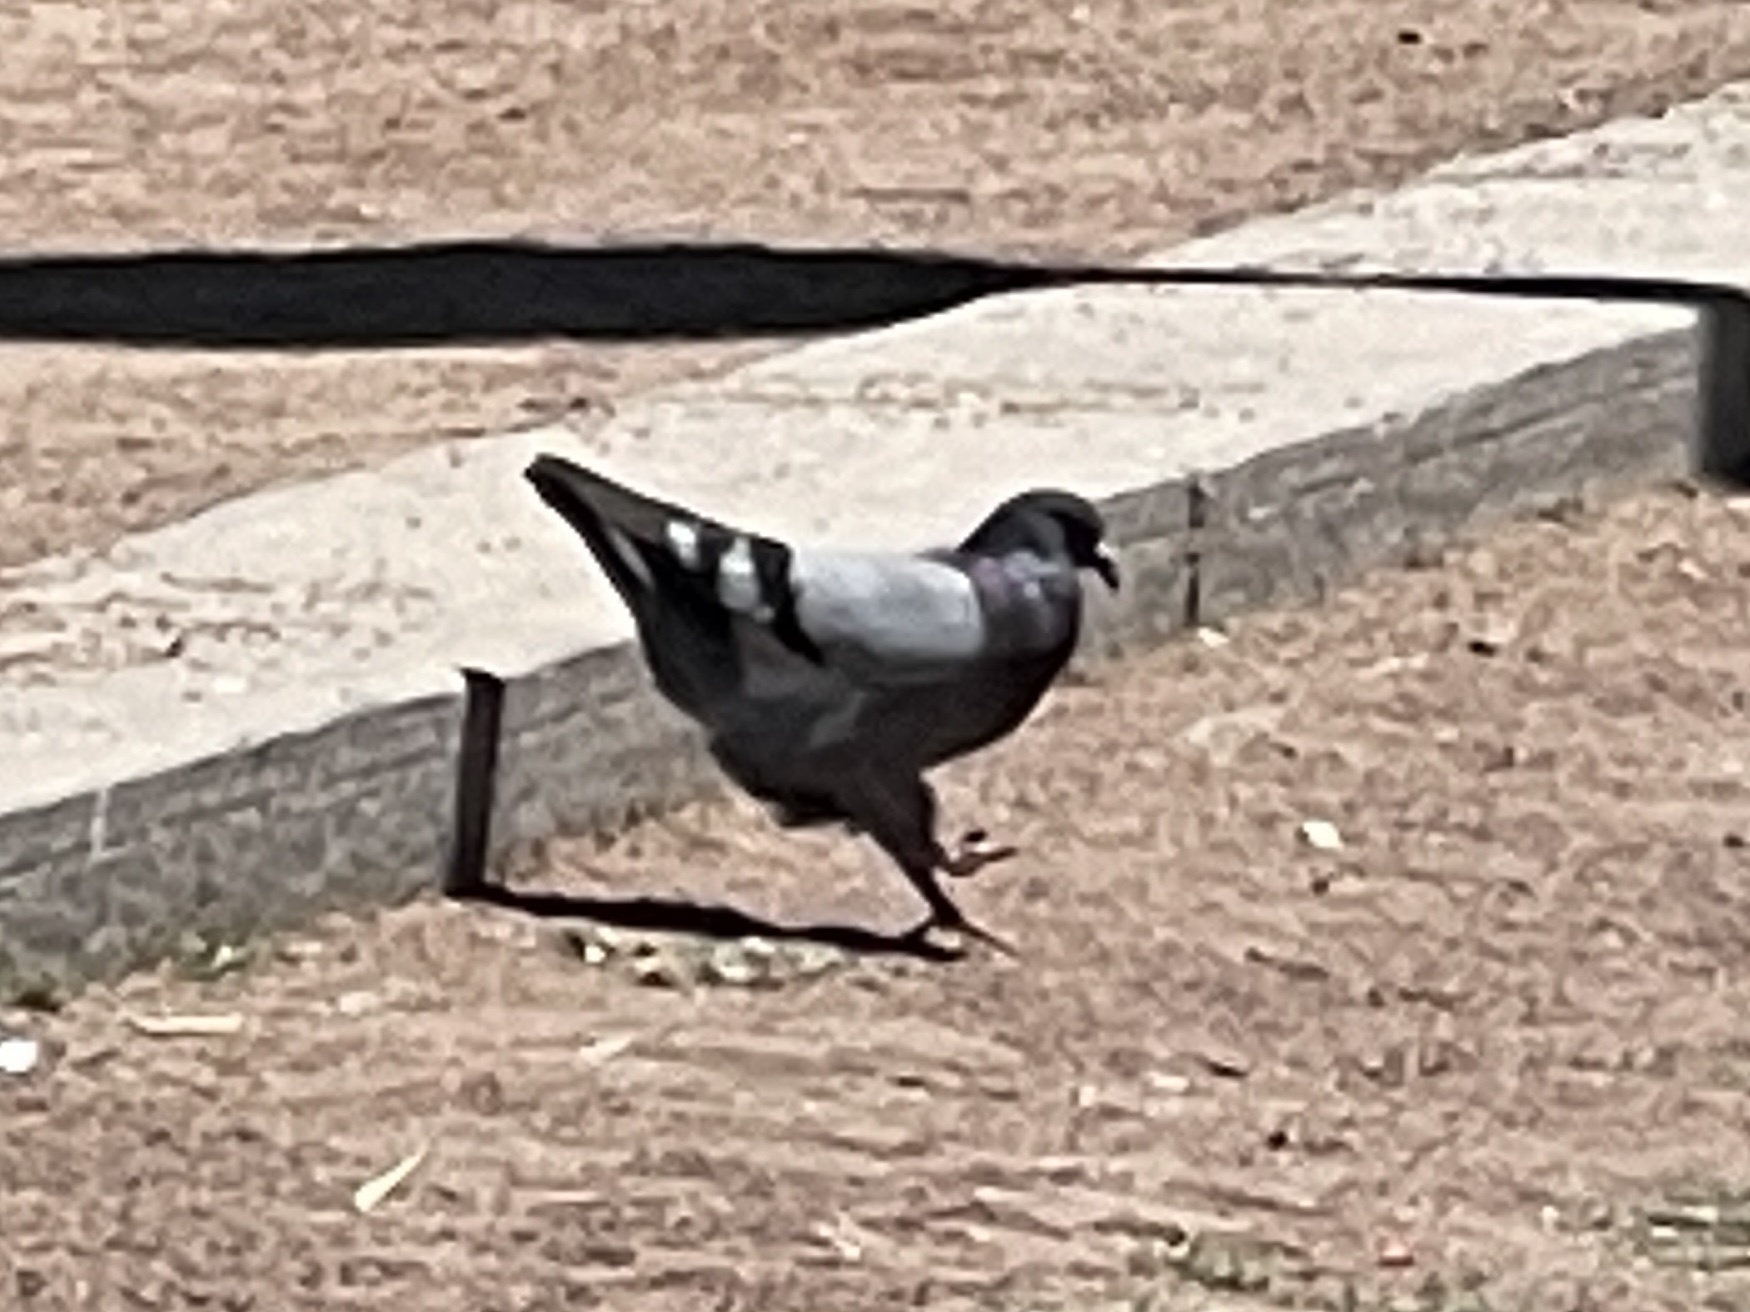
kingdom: Animalia
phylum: Chordata
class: Aves
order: Columbiformes
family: Columbidae
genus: Columba
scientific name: Columba livia
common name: Rock pigeon
